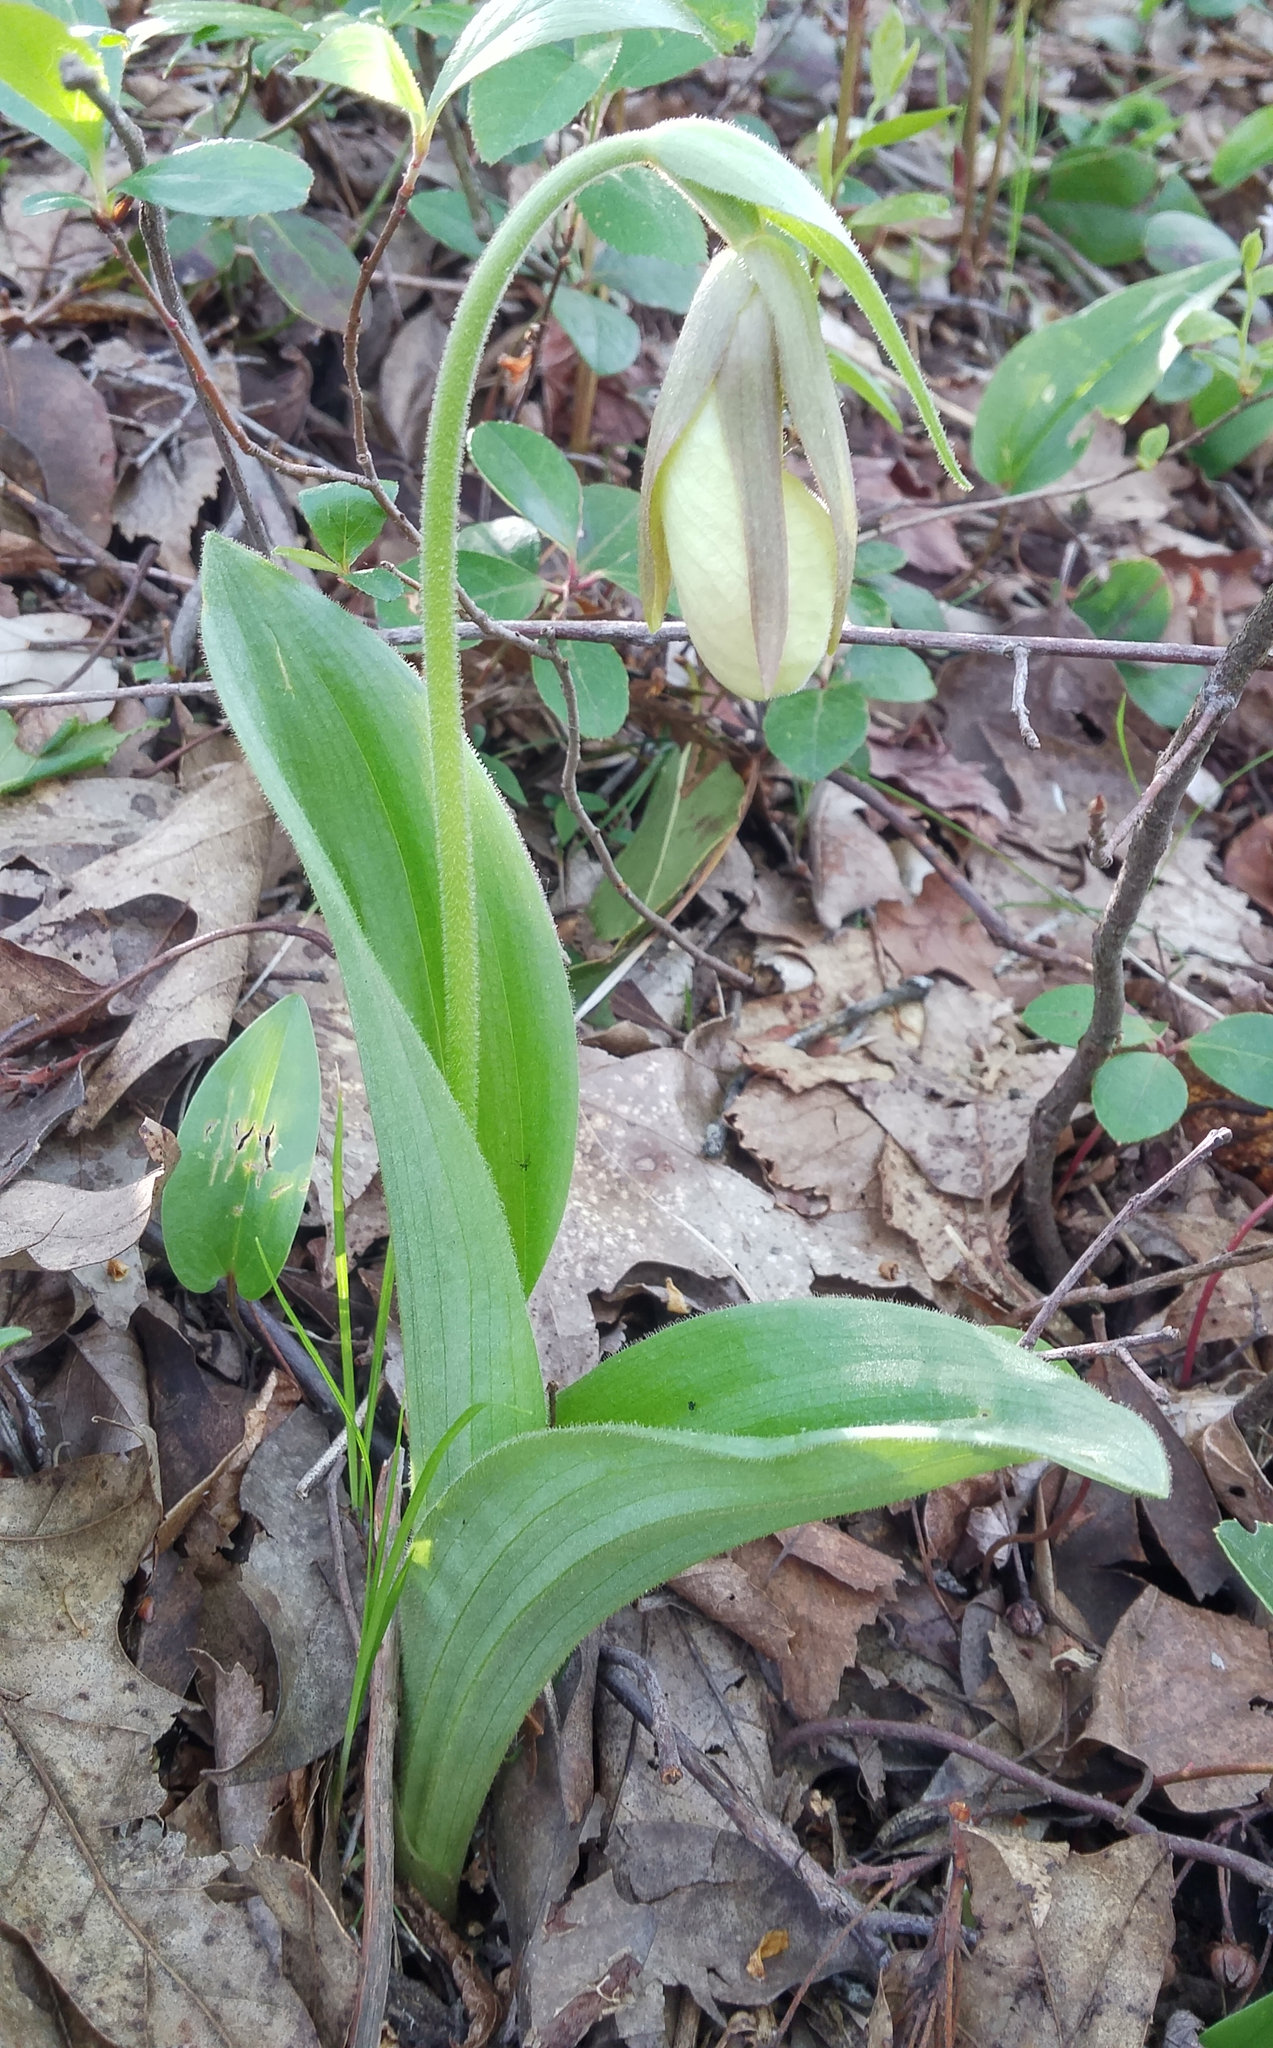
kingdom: Plantae
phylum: Tracheophyta
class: Liliopsida
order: Asparagales
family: Orchidaceae
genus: Cypripedium
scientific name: Cypripedium acaule
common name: Pink lady's-slipper
